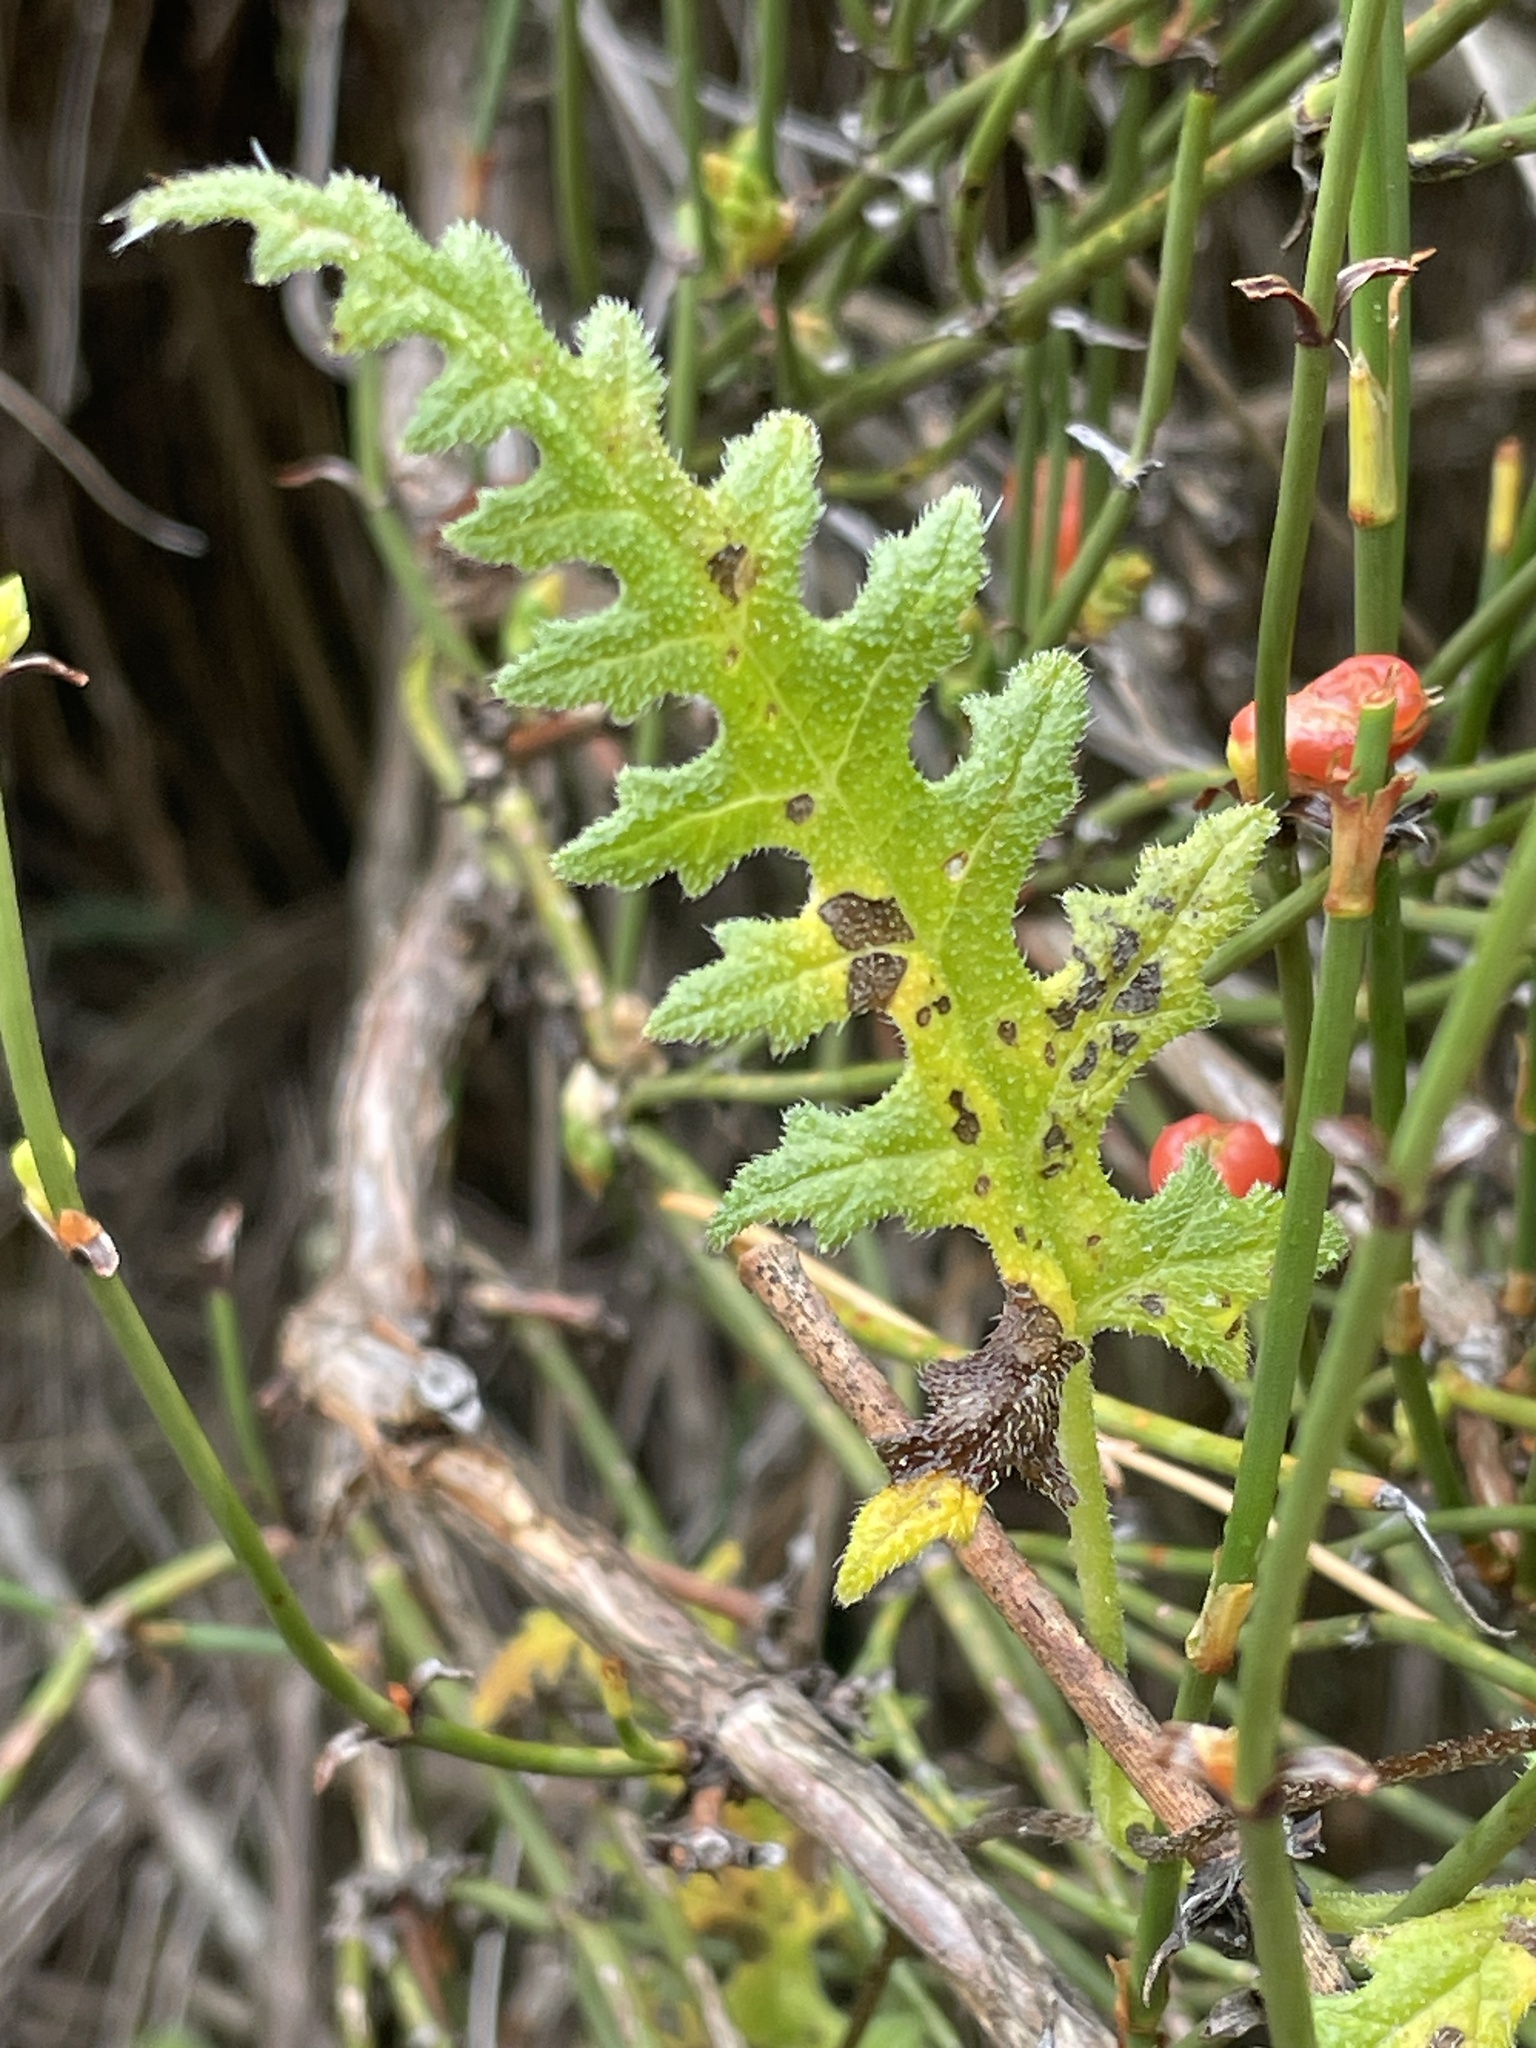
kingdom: Plantae
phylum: Tracheophyta
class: Magnoliopsida
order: Cornales
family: Loasaceae
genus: Caiophora
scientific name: Caiophora stenocarpa
